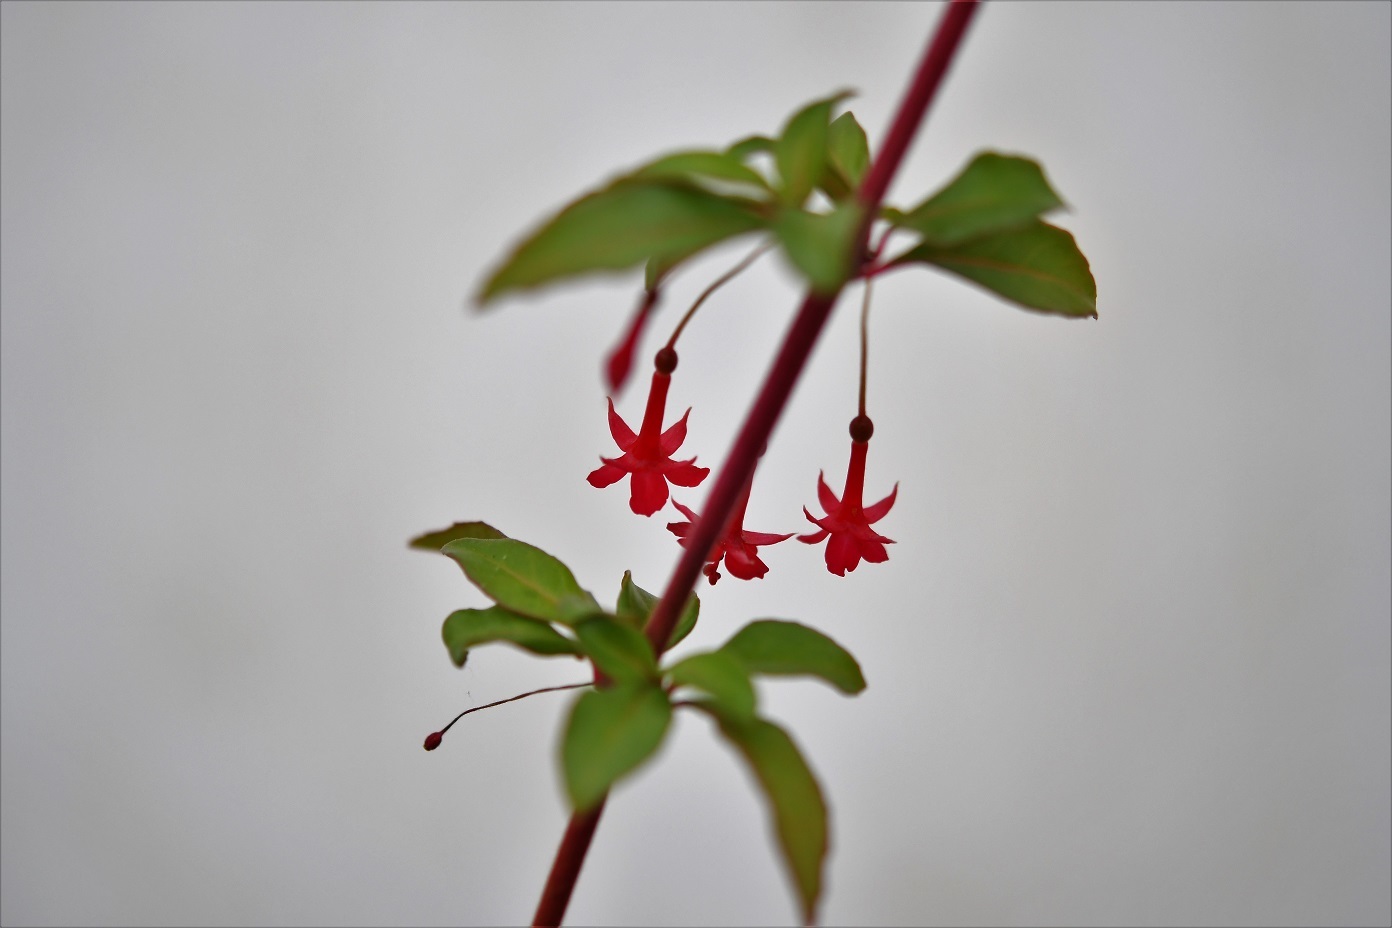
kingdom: Plantae
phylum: Tracheophyta
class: Magnoliopsida
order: Myrtales
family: Onagraceae
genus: Fuchsia
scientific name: Fuchsia thymifolia
